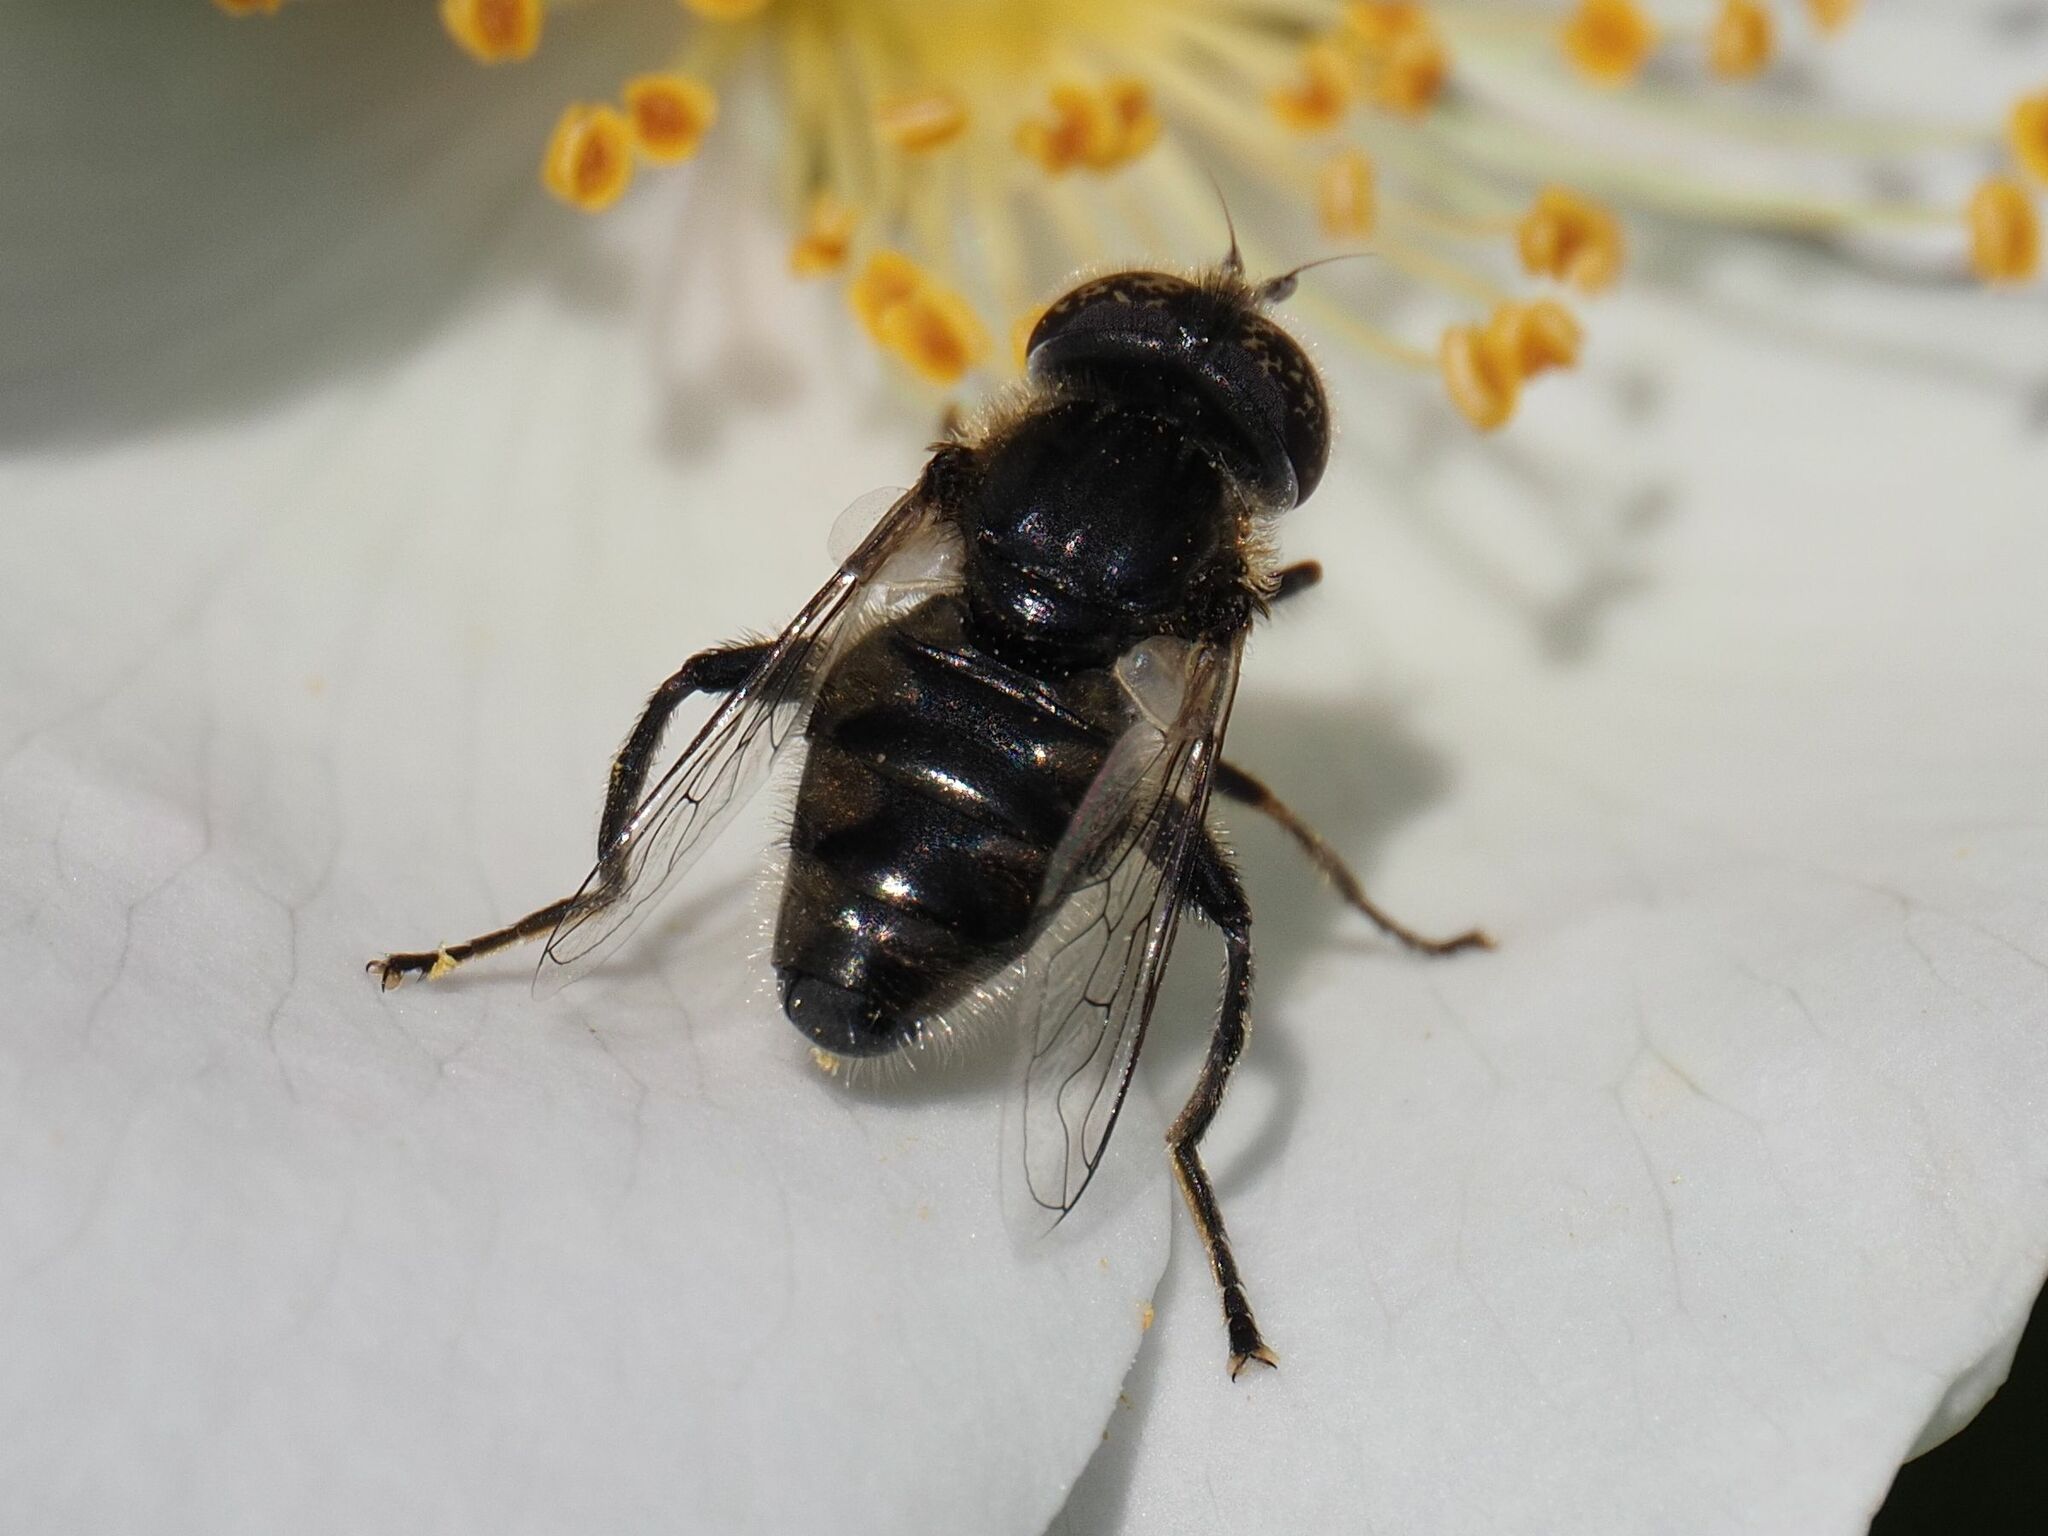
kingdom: Animalia
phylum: Arthropoda
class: Insecta
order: Diptera
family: Syrphidae
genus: Eristalinus
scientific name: Eristalinus sepulchralis
